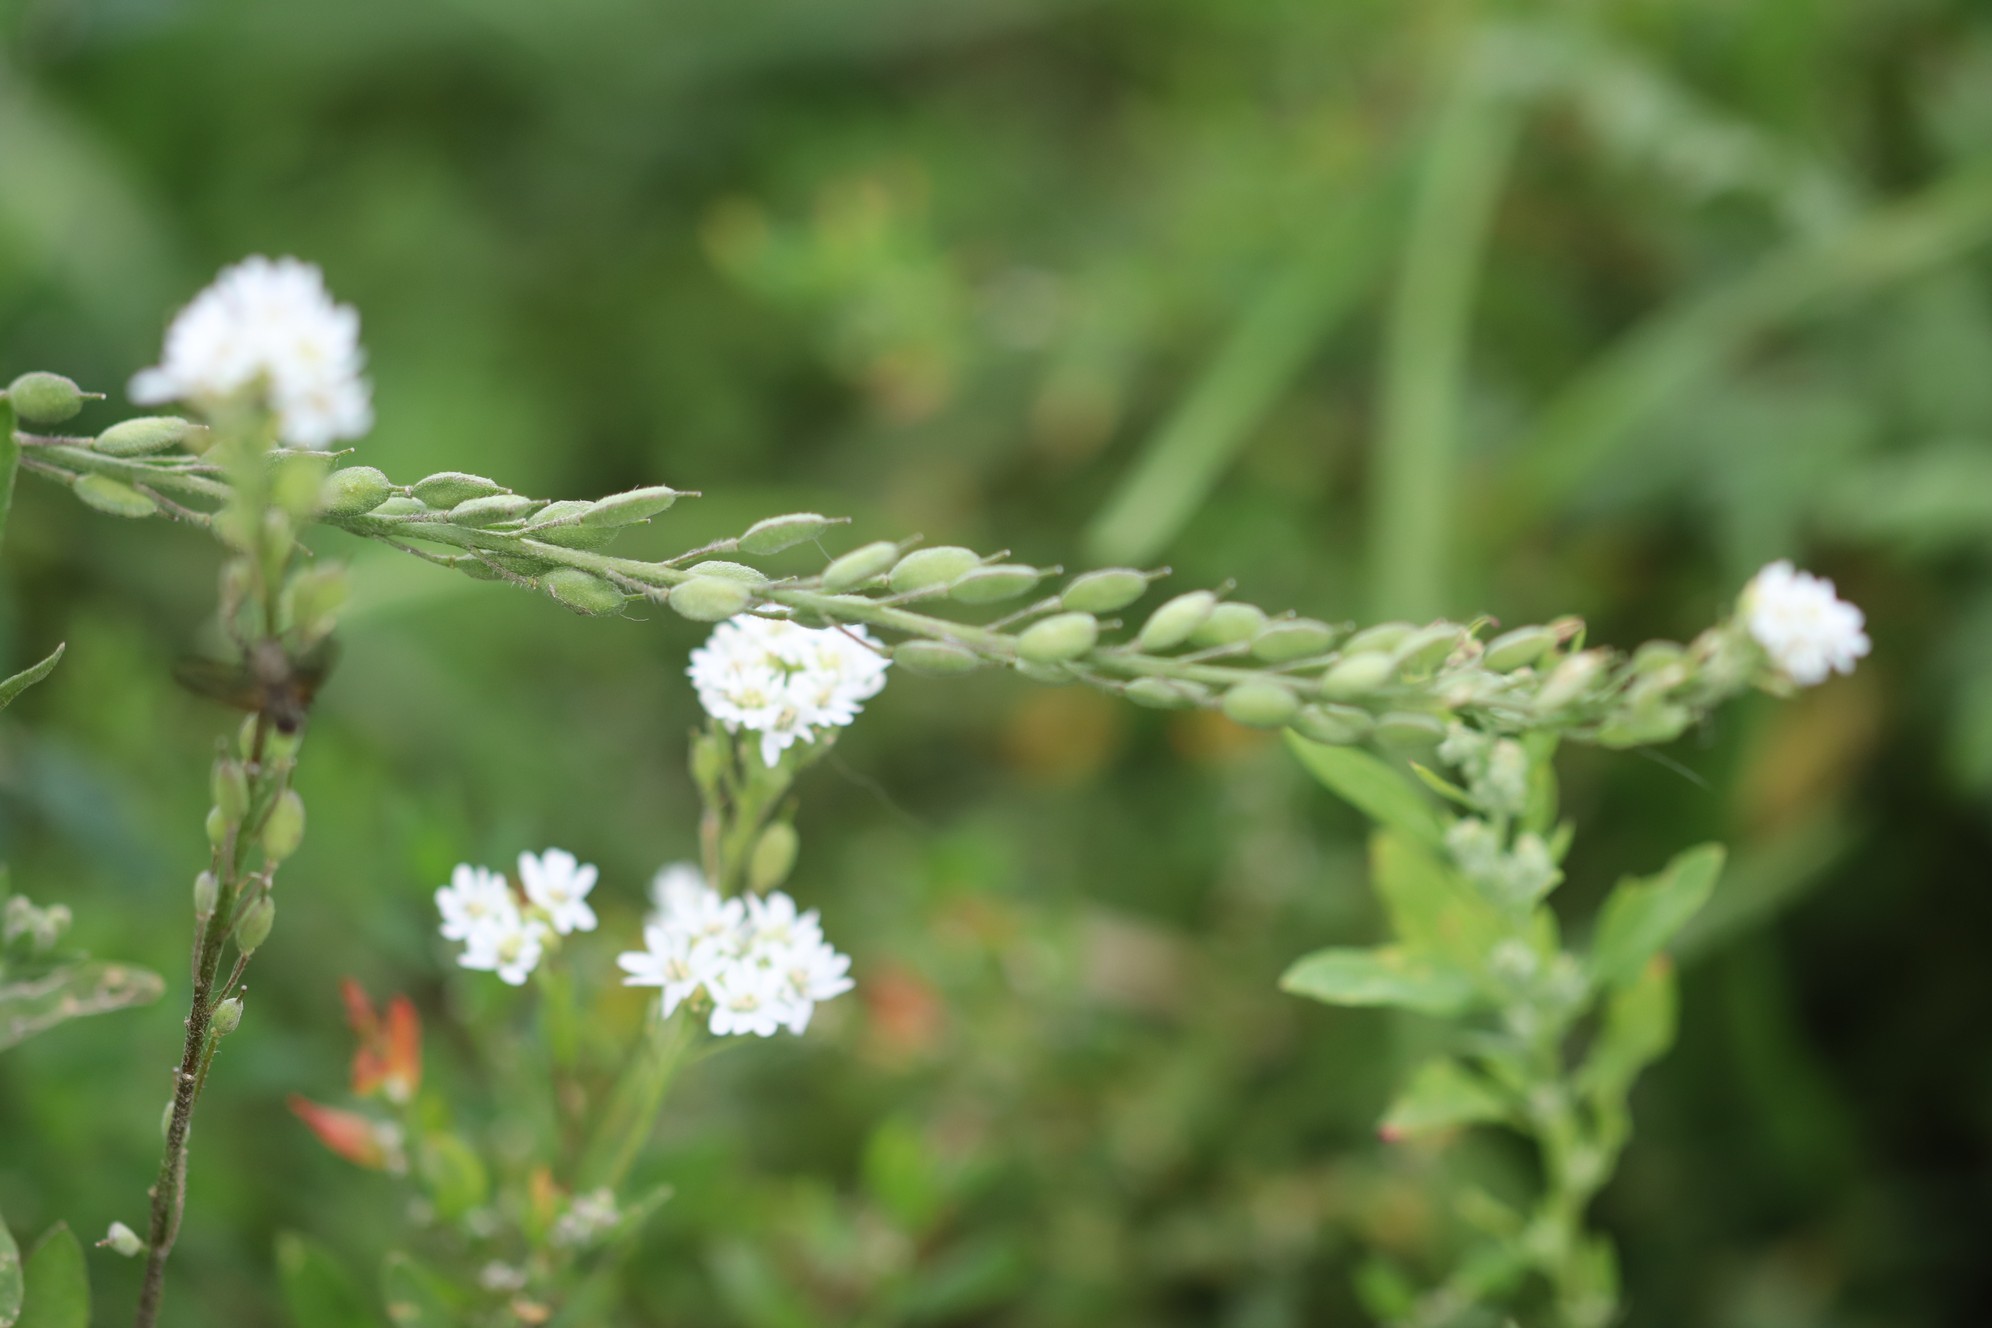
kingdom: Plantae
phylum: Tracheophyta
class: Magnoliopsida
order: Brassicales
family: Brassicaceae
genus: Berteroa
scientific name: Berteroa incana
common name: Hoary alison
